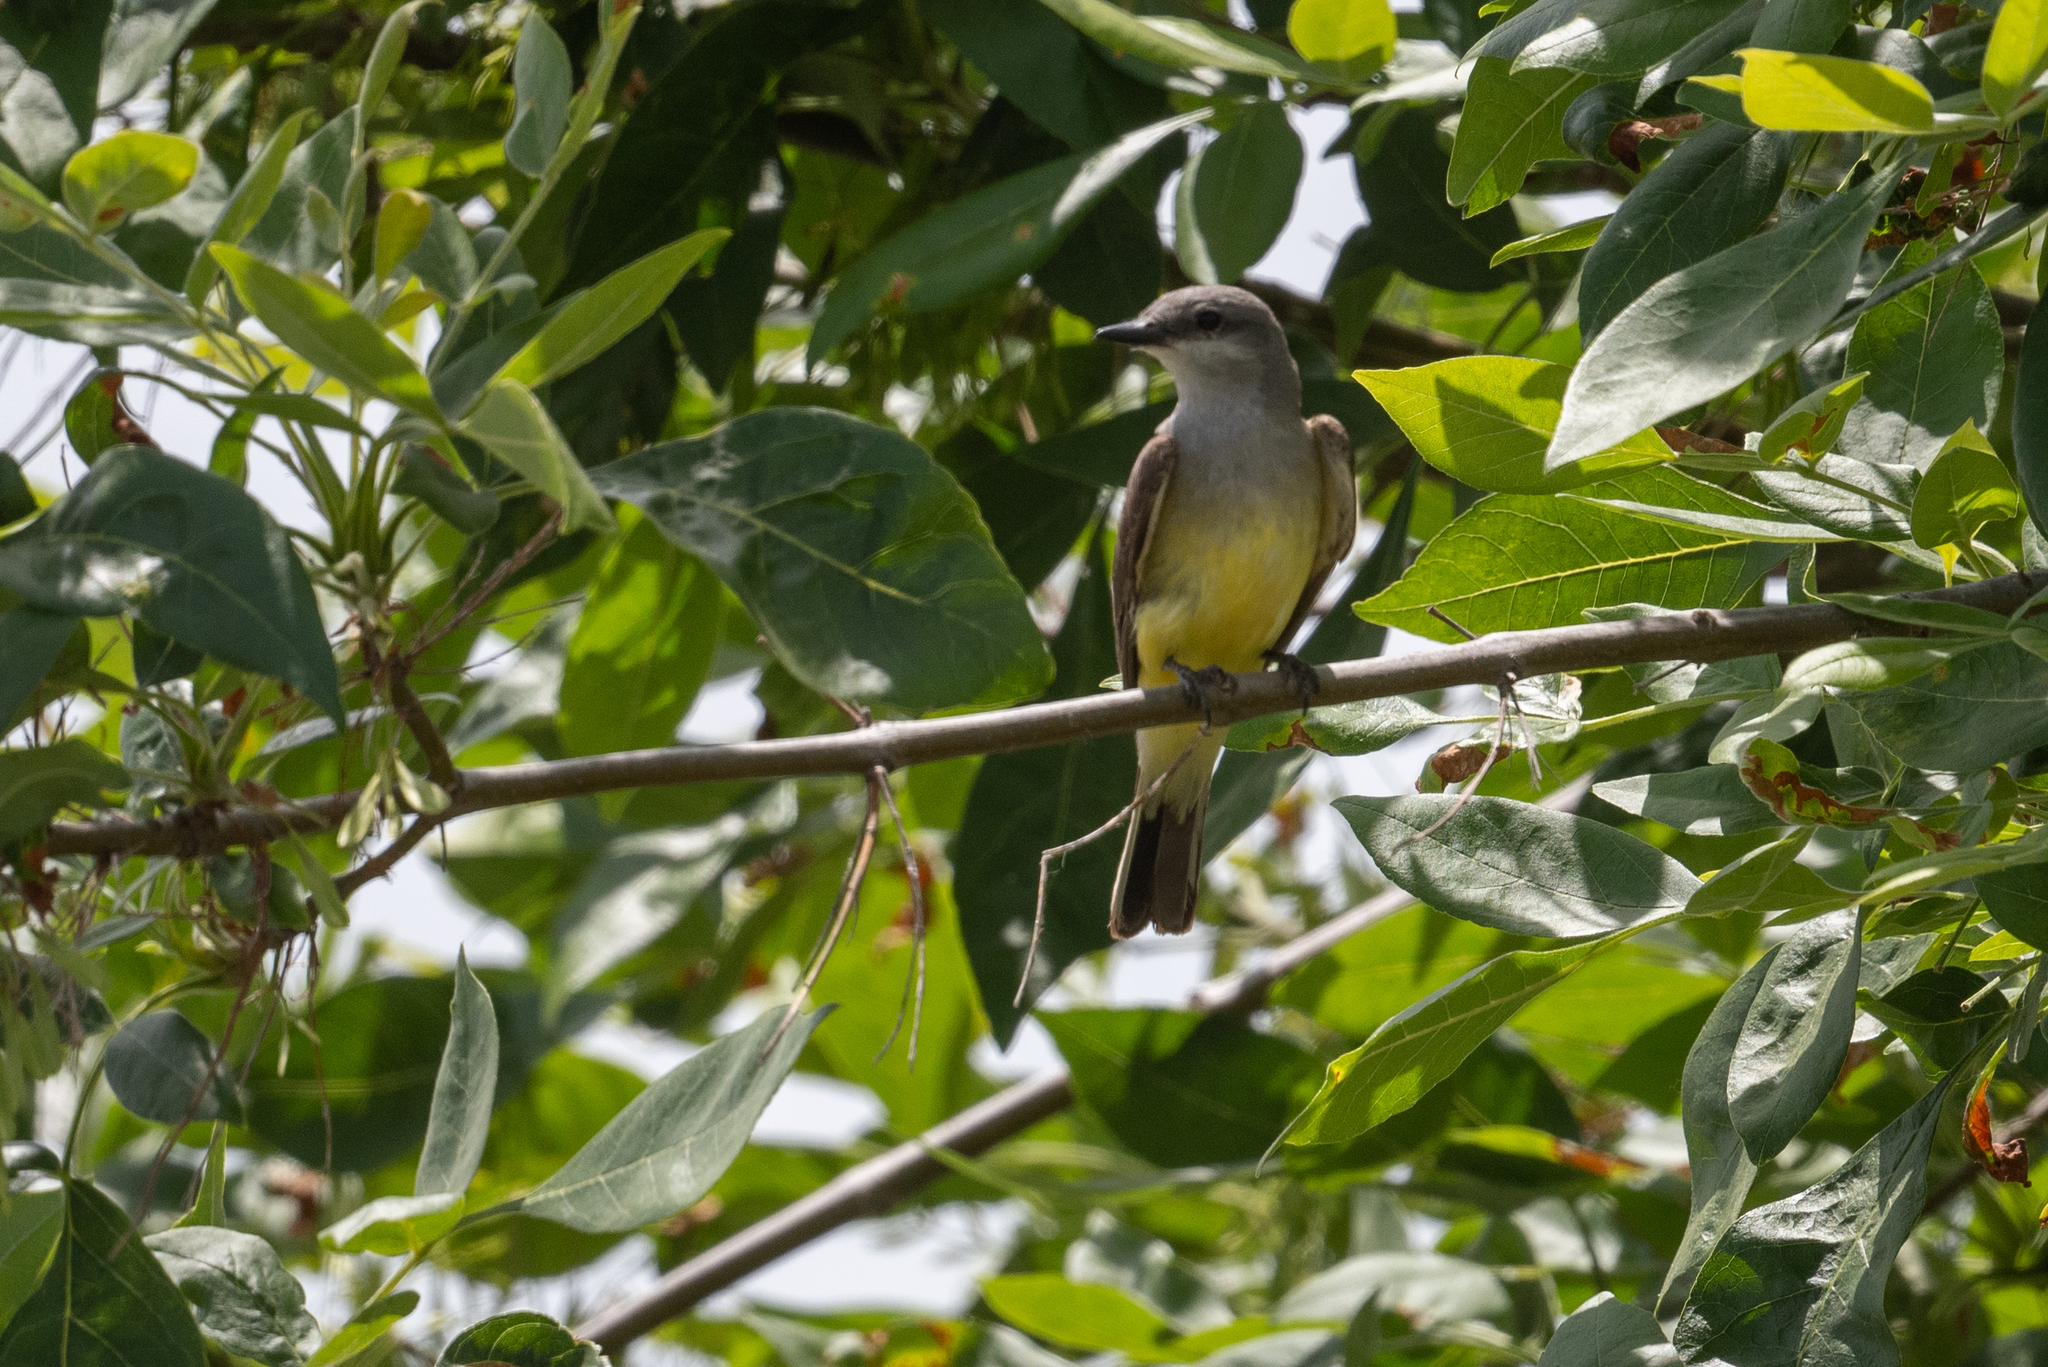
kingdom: Animalia
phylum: Chordata
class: Aves
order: Passeriformes
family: Tyrannidae
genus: Tyrannus
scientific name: Tyrannus verticalis
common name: Western kingbird
